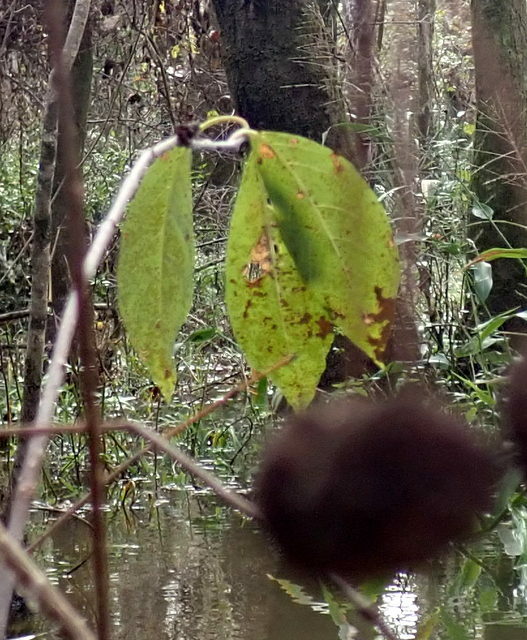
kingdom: Plantae
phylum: Tracheophyta
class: Magnoliopsida
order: Gentianales
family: Rubiaceae
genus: Cephalanthus
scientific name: Cephalanthus occidentalis
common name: Button-willow
